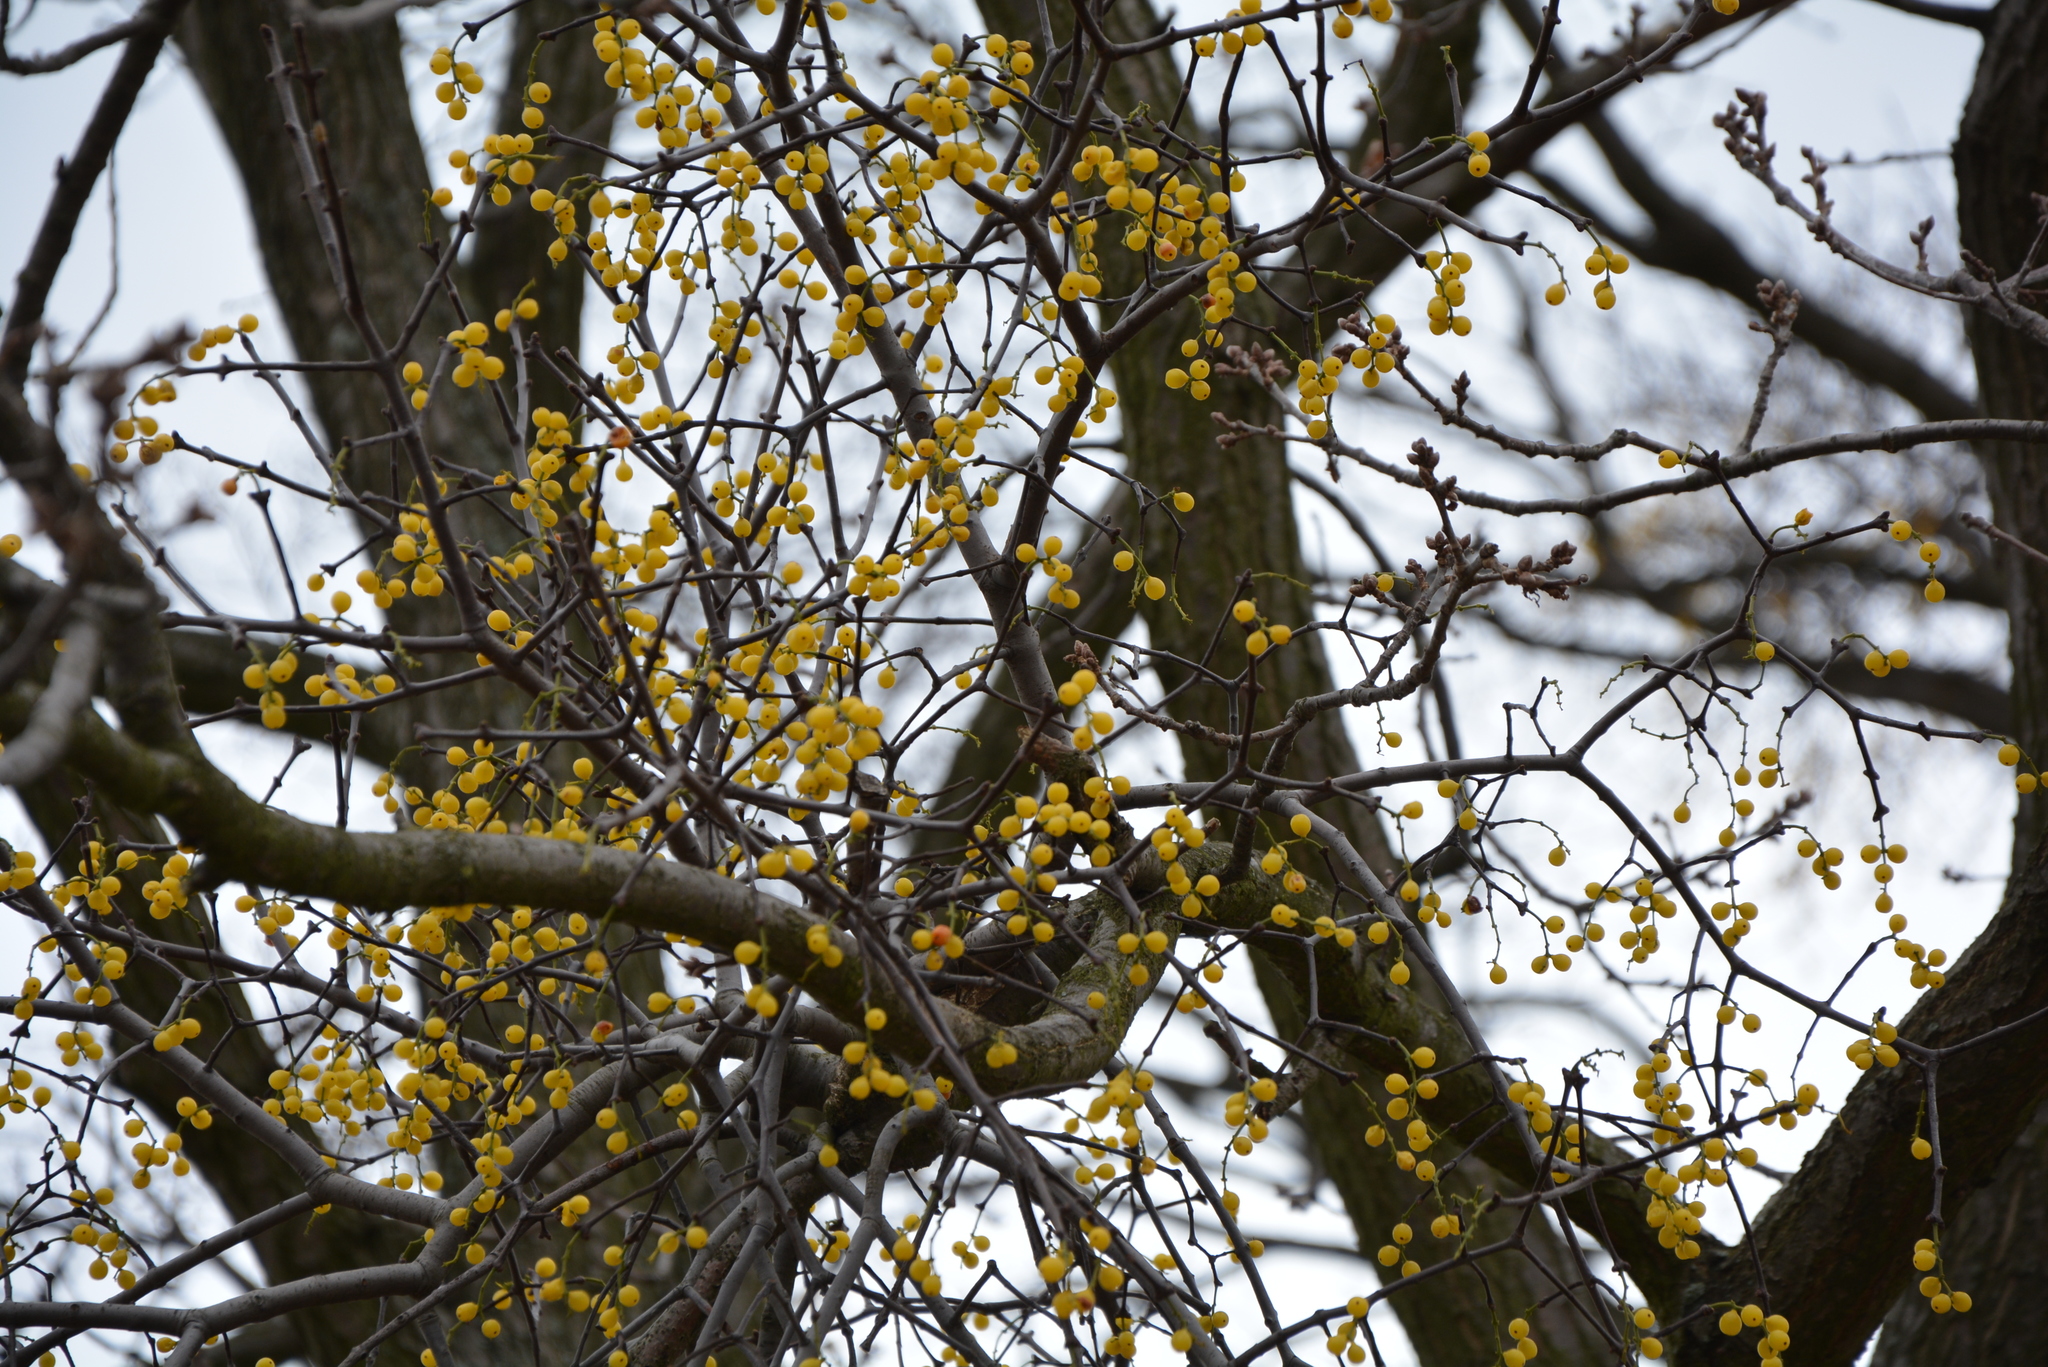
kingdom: Plantae
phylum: Tracheophyta
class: Magnoliopsida
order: Santalales
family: Loranthaceae
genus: Loranthus
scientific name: Loranthus europaeus
